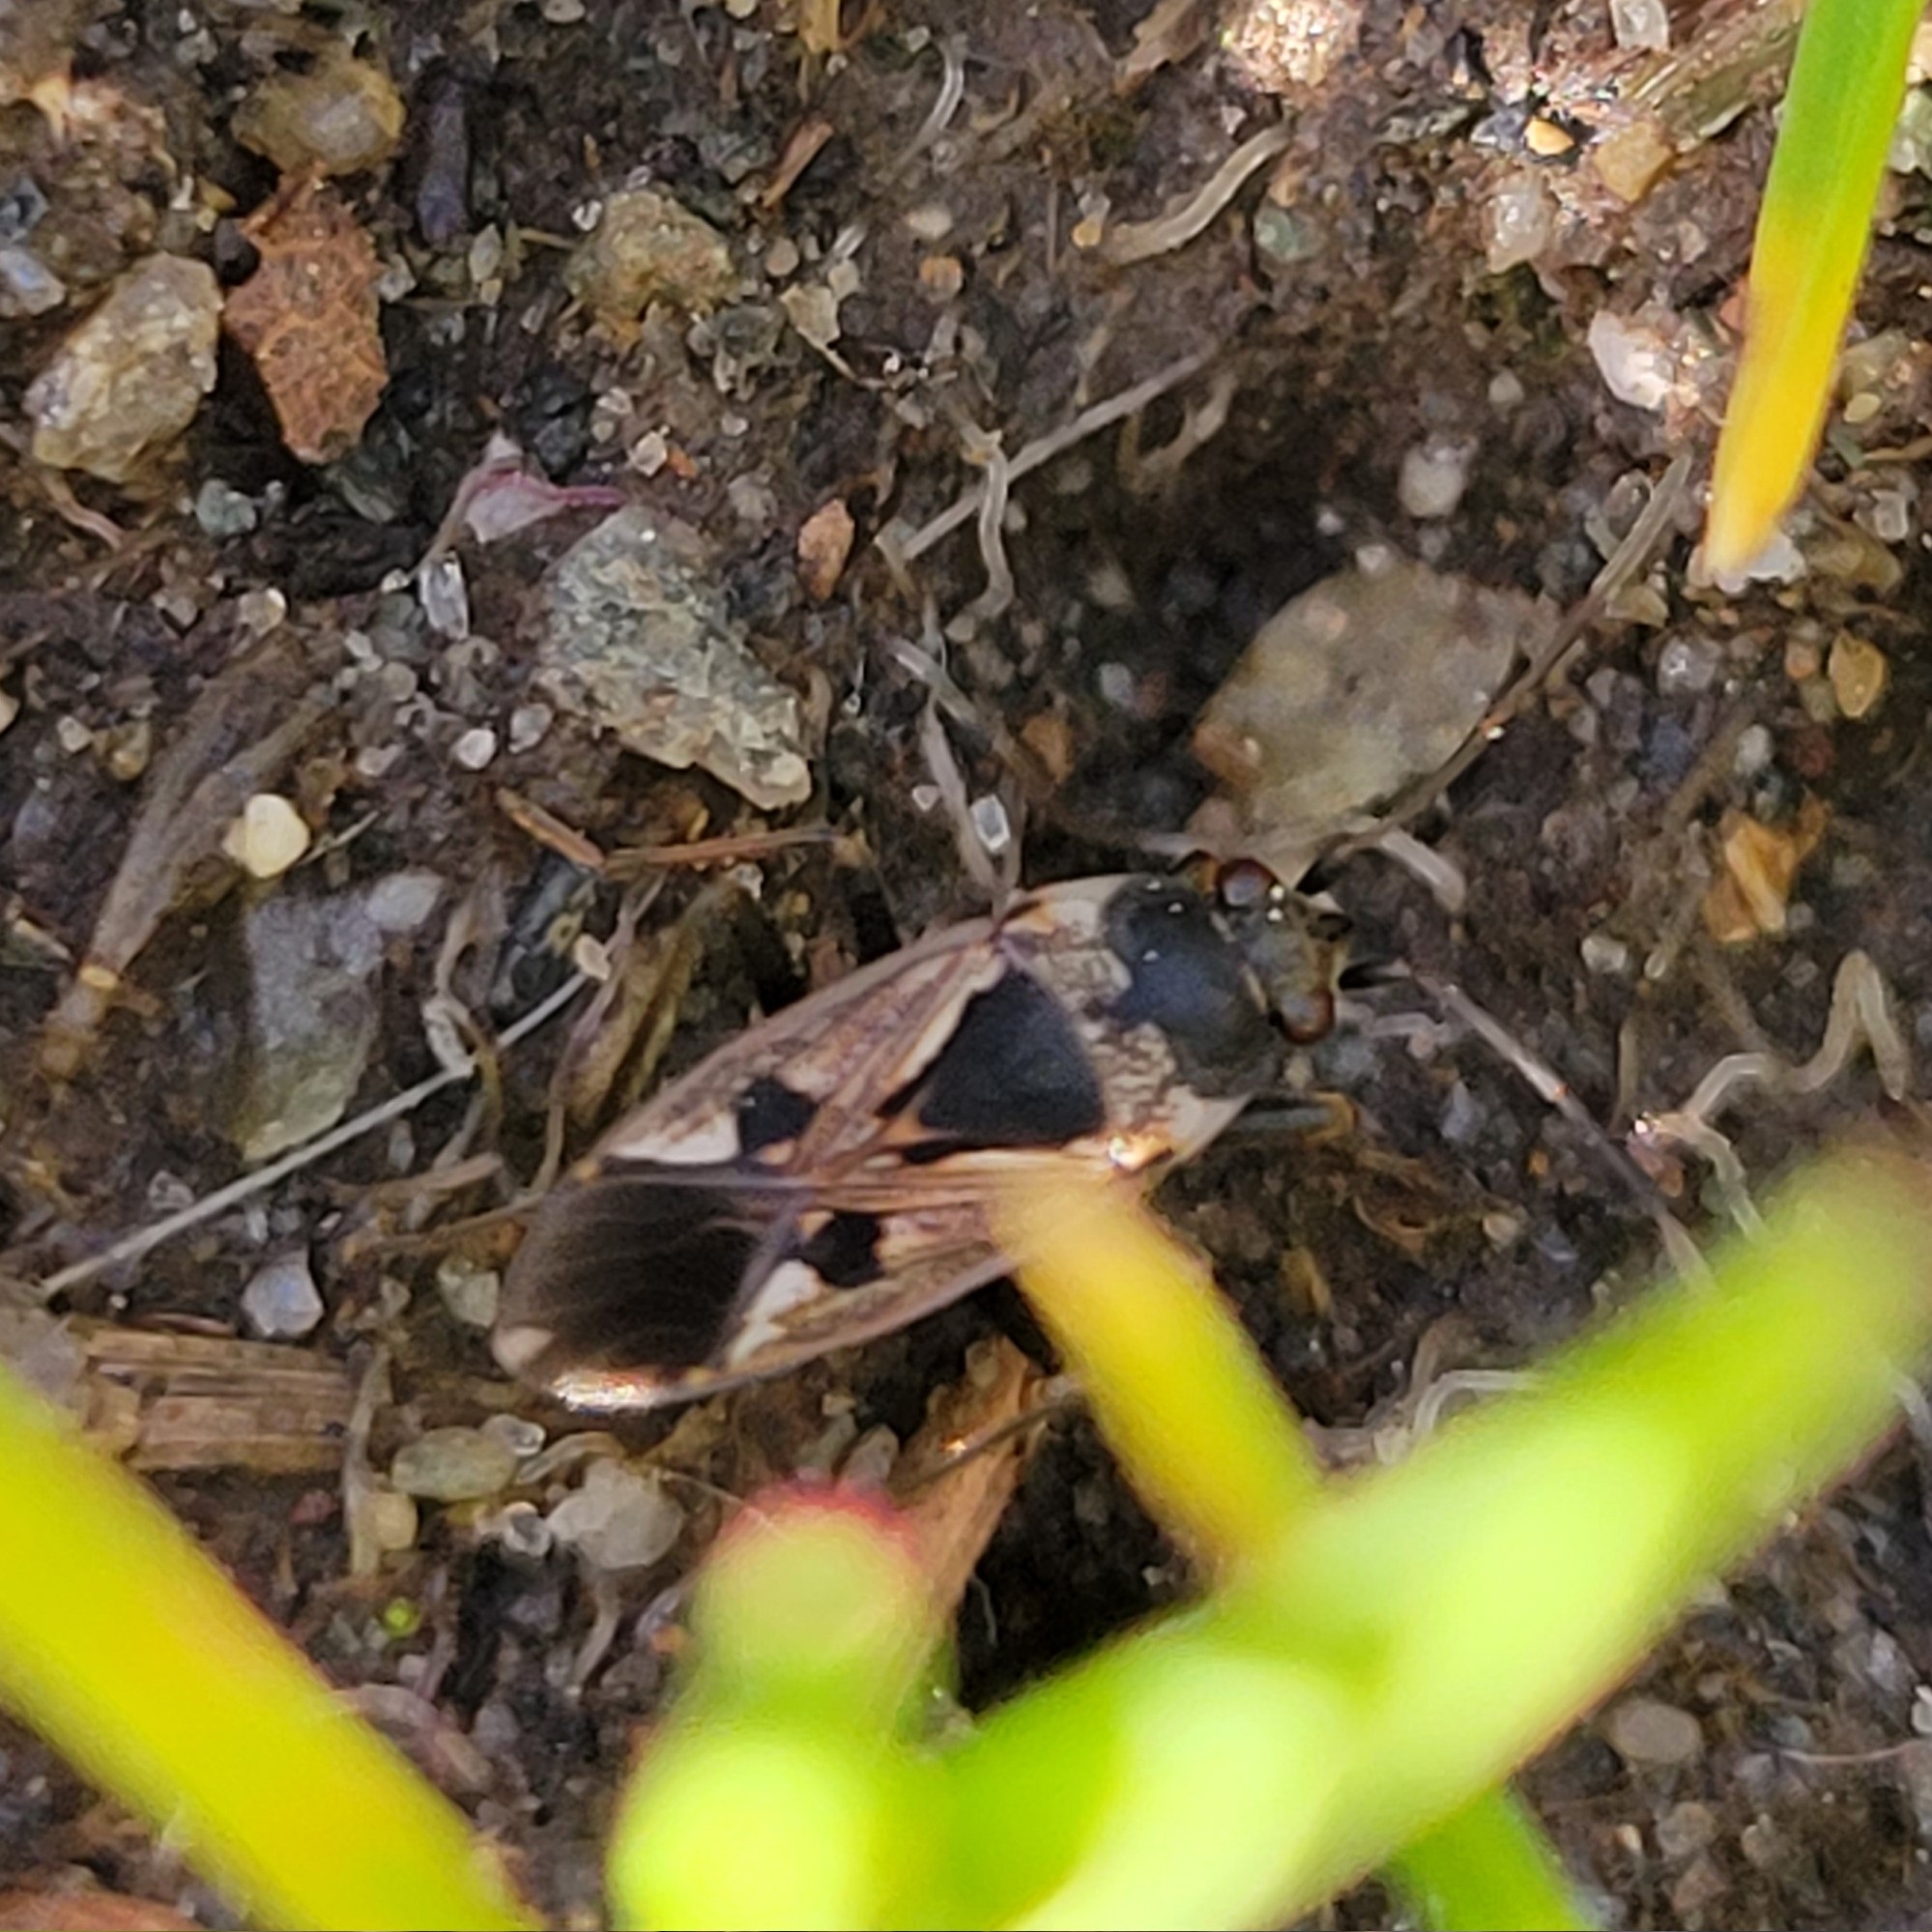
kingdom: Animalia
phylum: Arthropoda
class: Insecta
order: Hemiptera
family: Rhyparochromidae
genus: Rhyparochromus
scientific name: Rhyparochromus vulgaris
